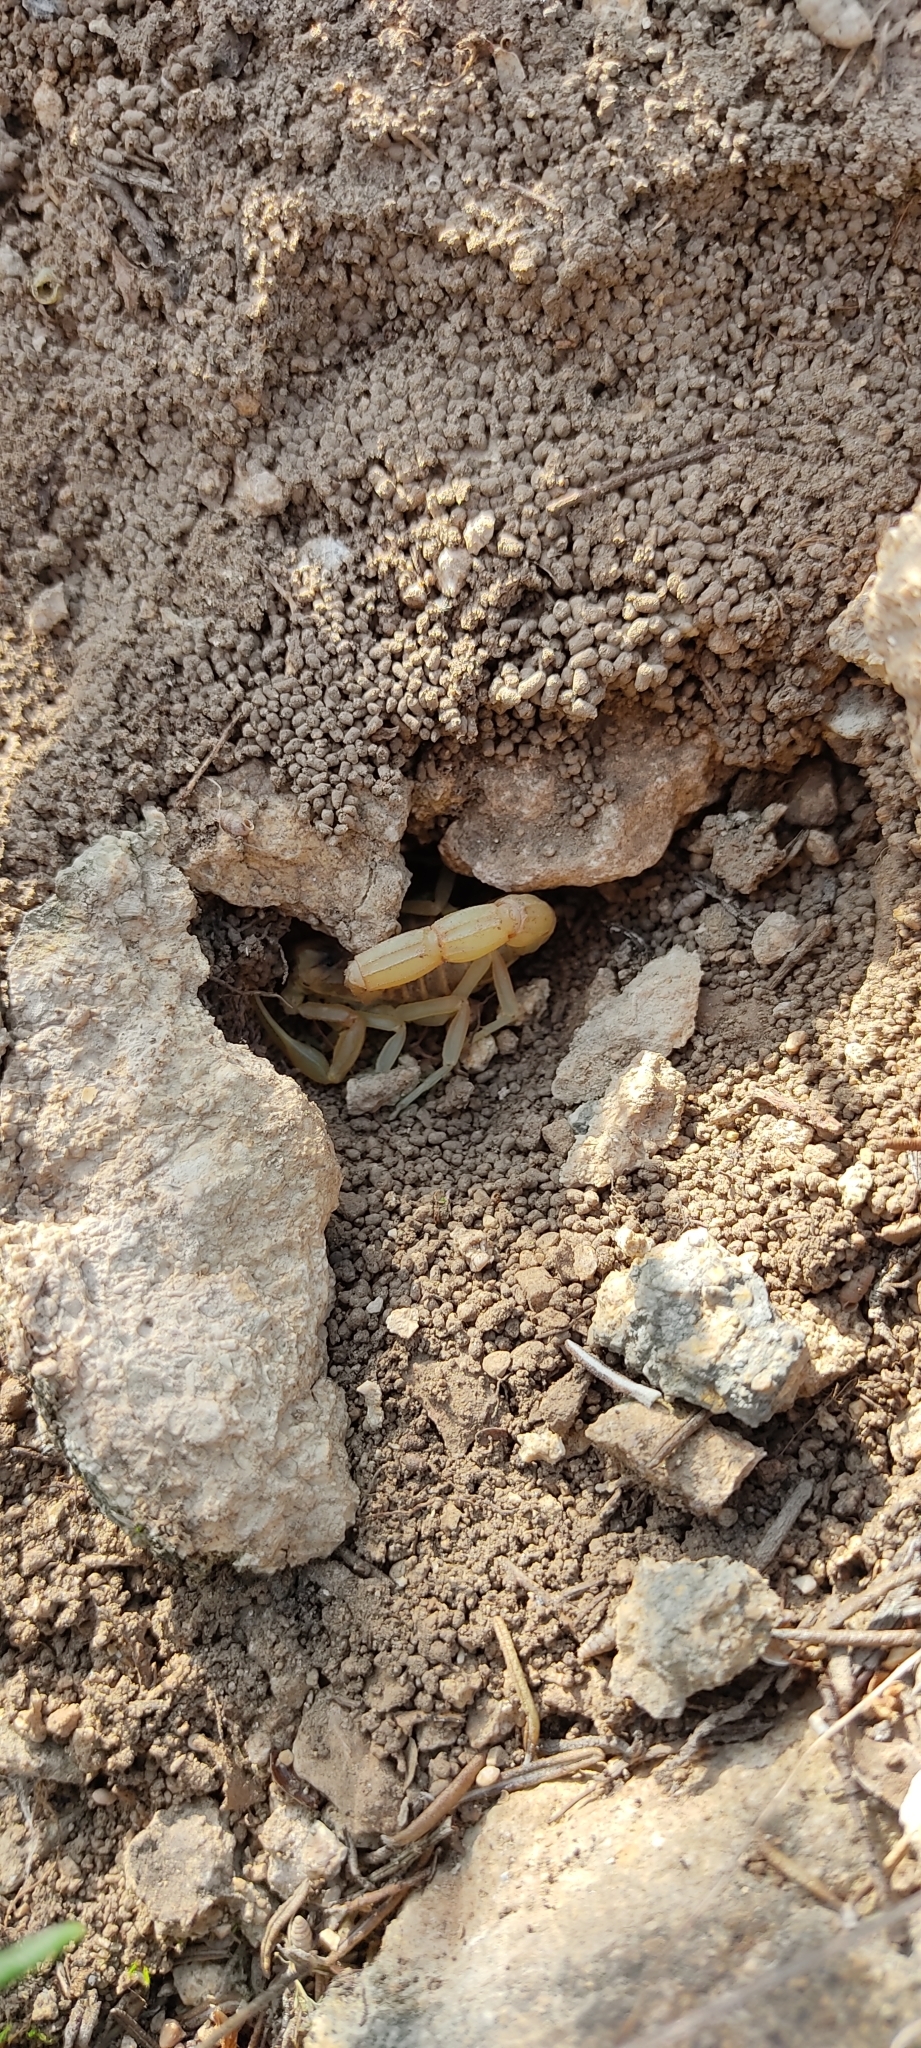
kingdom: Animalia
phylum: Arthropoda
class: Arachnida
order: Scorpiones
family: Buthidae
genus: Buthus
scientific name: Buthus occitanus
